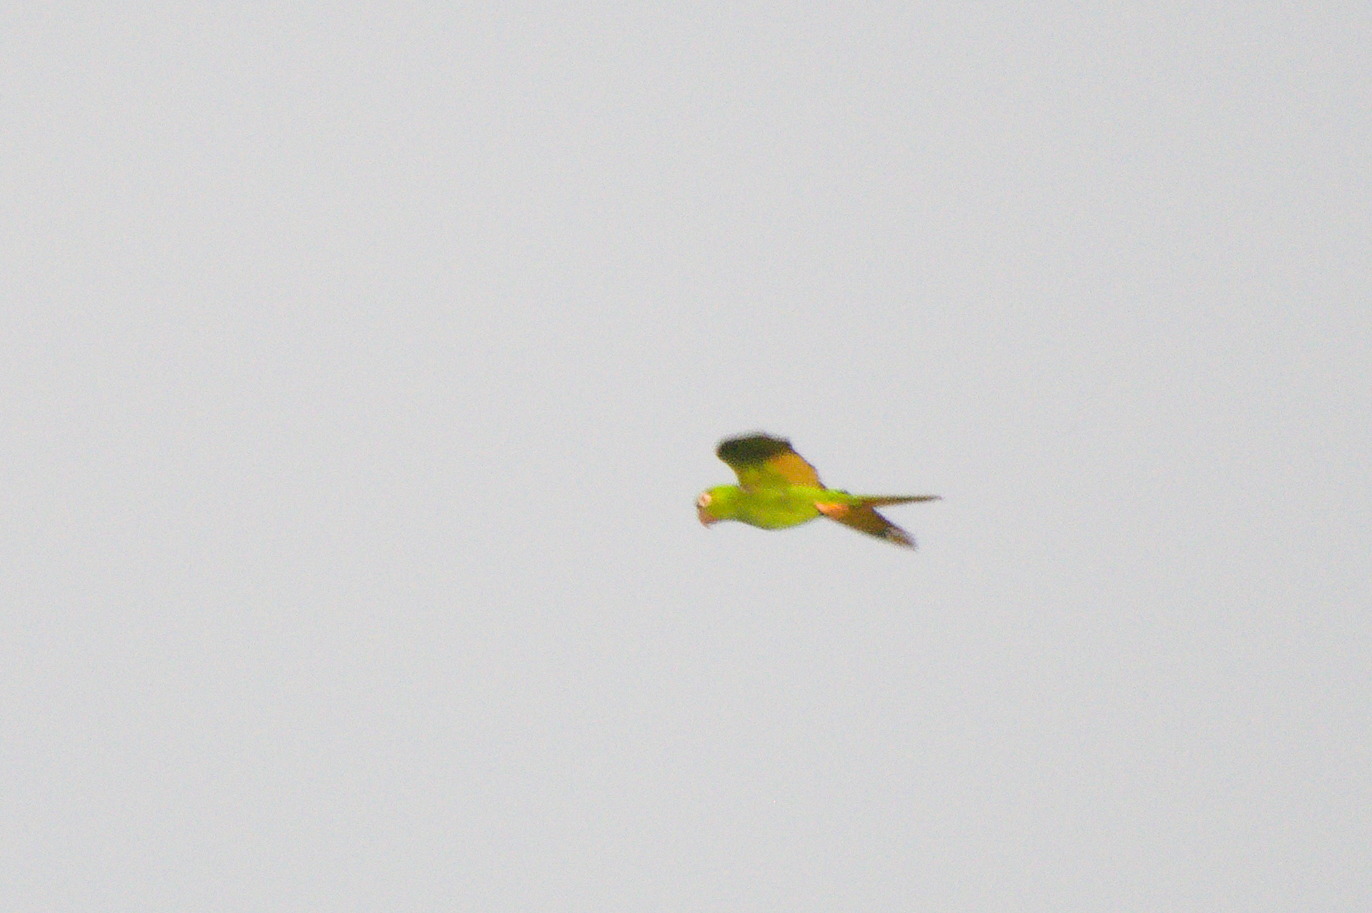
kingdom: Animalia
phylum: Chordata
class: Aves
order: Psittaciformes
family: Psittacidae
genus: Aratinga
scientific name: Aratinga pertinax
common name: Brown-throated parakeet
